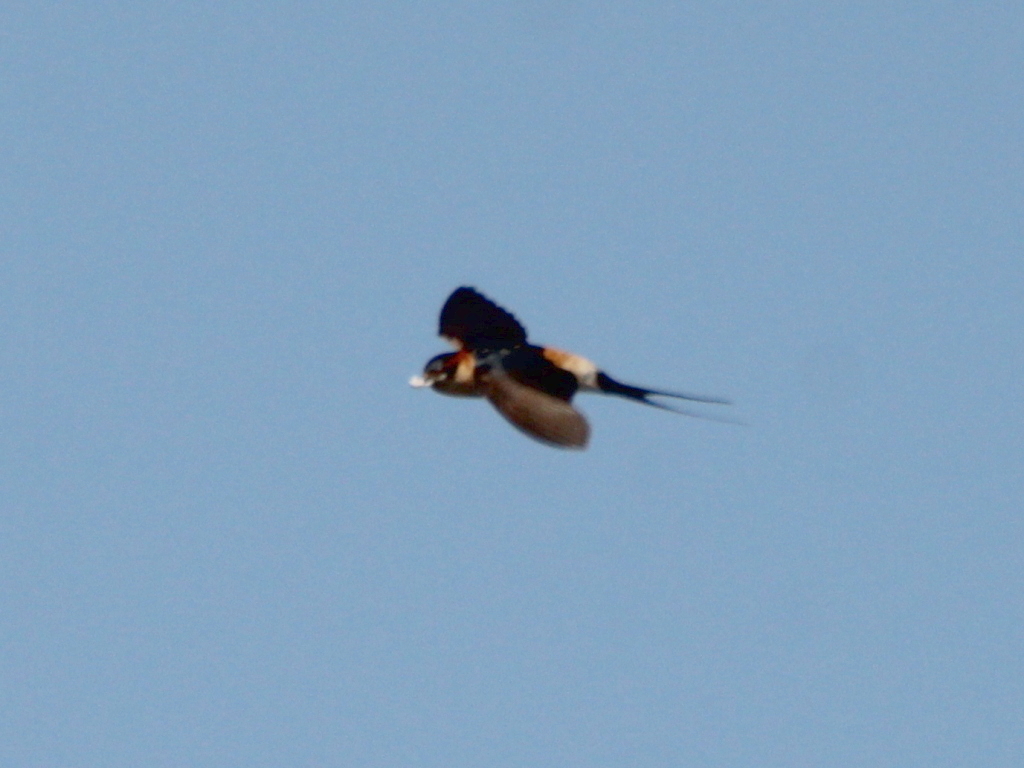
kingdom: Animalia
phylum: Chordata
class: Aves
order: Passeriformes
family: Hirundinidae
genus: Cecropis
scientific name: Cecropis daurica
